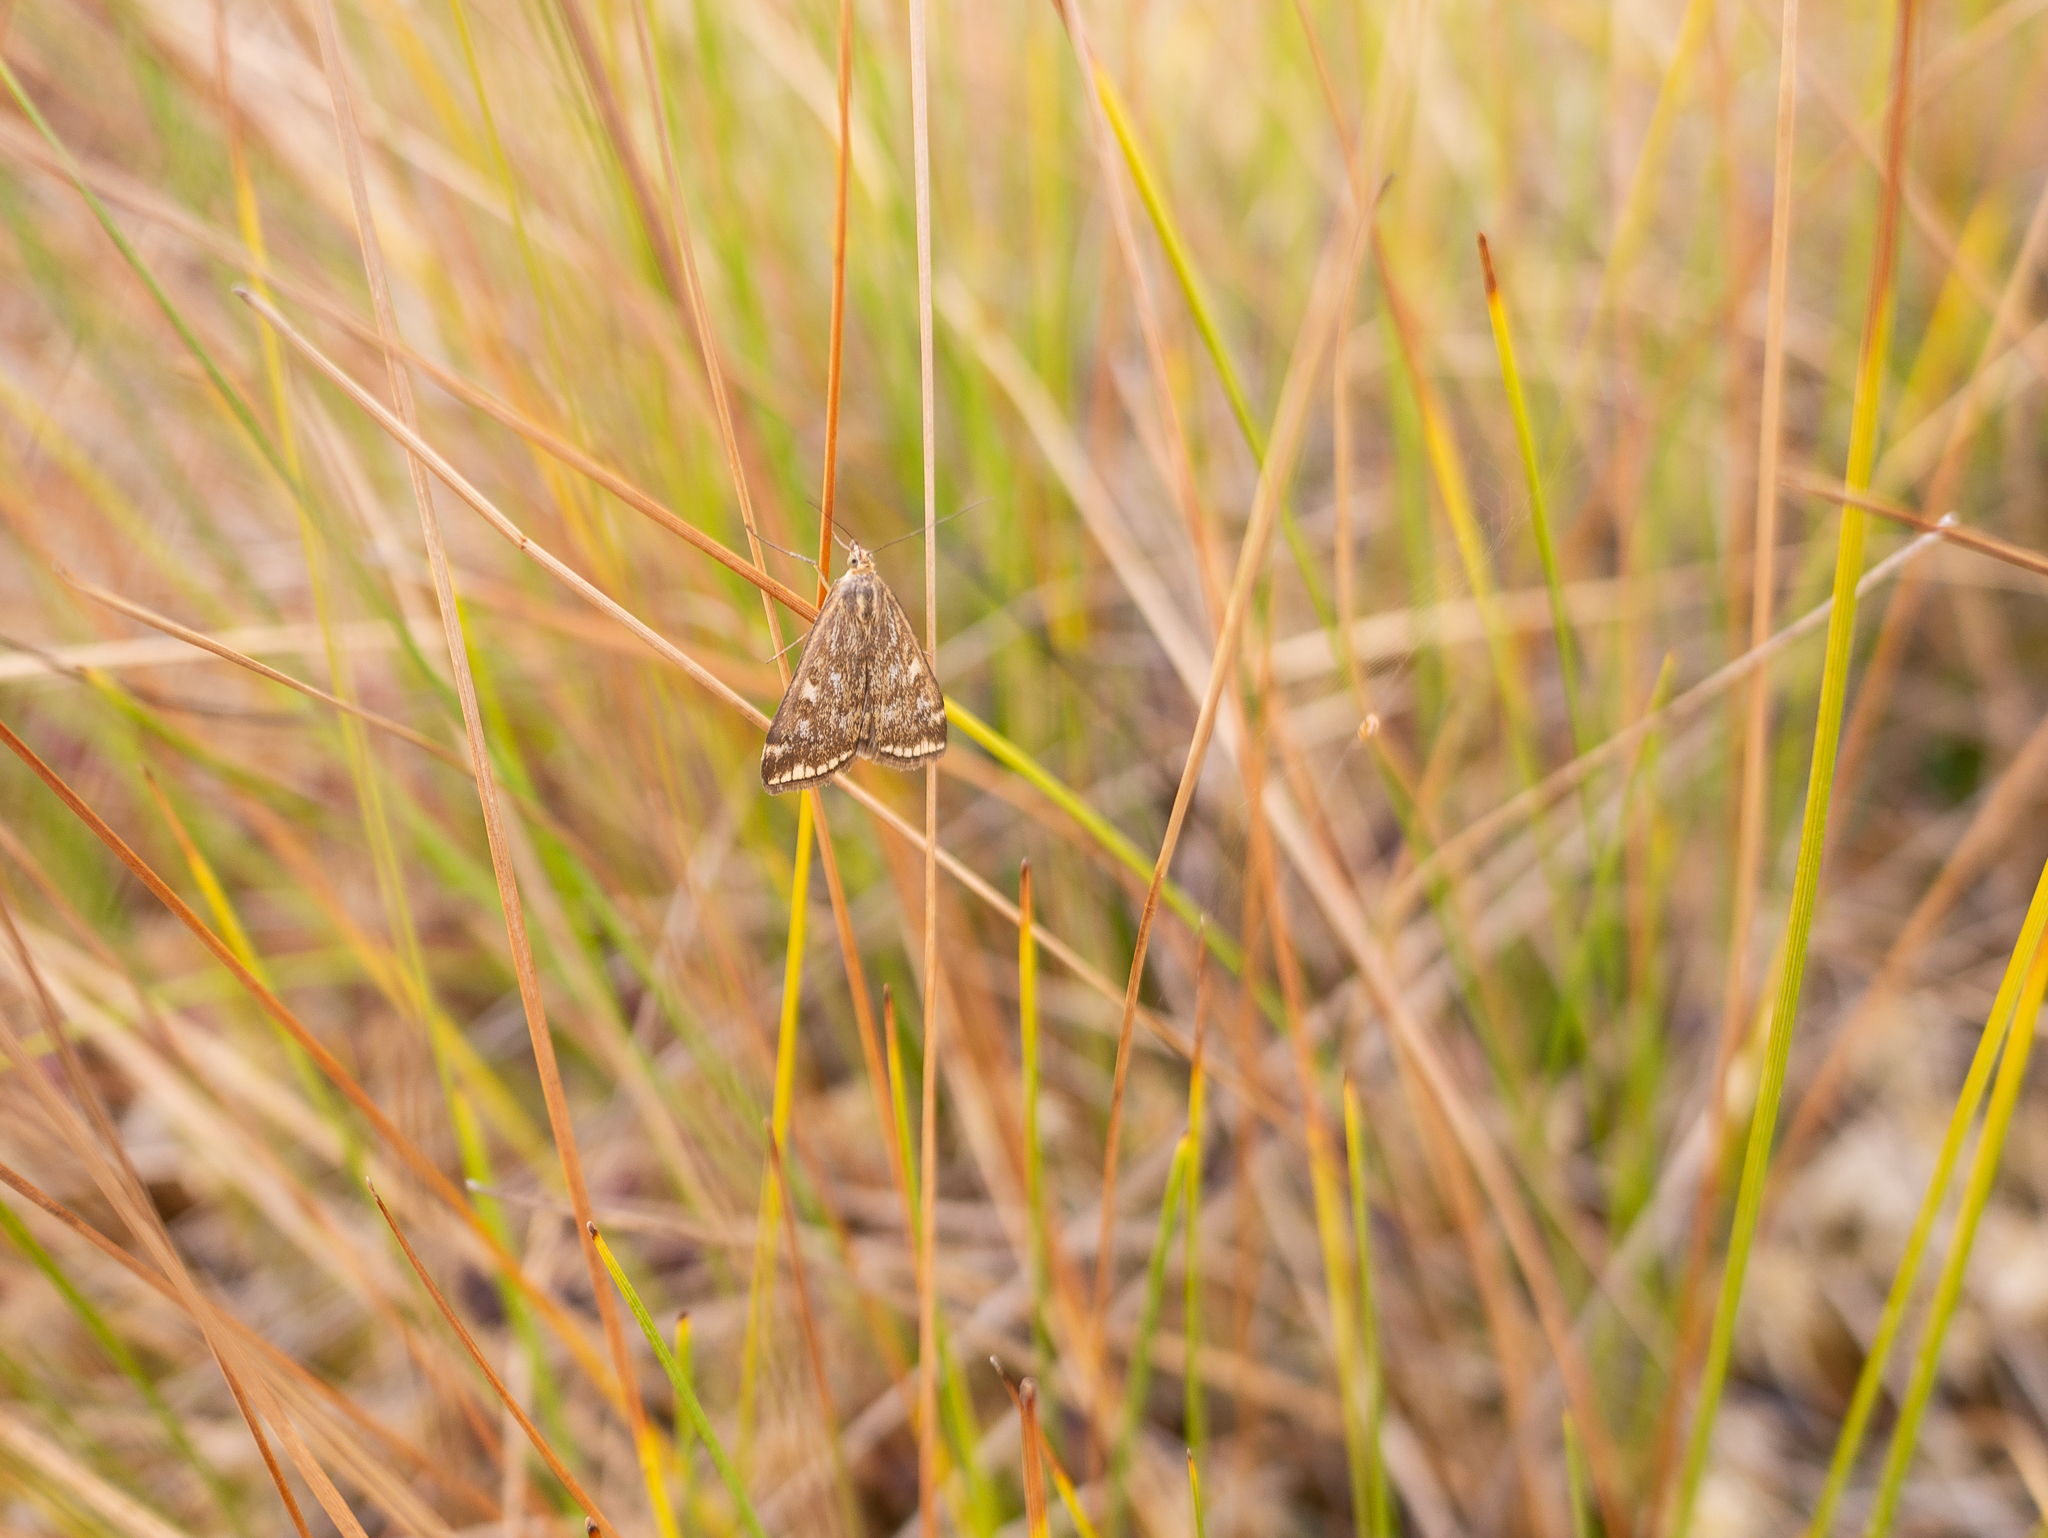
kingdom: Animalia
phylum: Arthropoda
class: Insecta
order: Lepidoptera
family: Crambidae
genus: Loxostege
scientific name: Loxostege sticticalis
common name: Crambid moth
